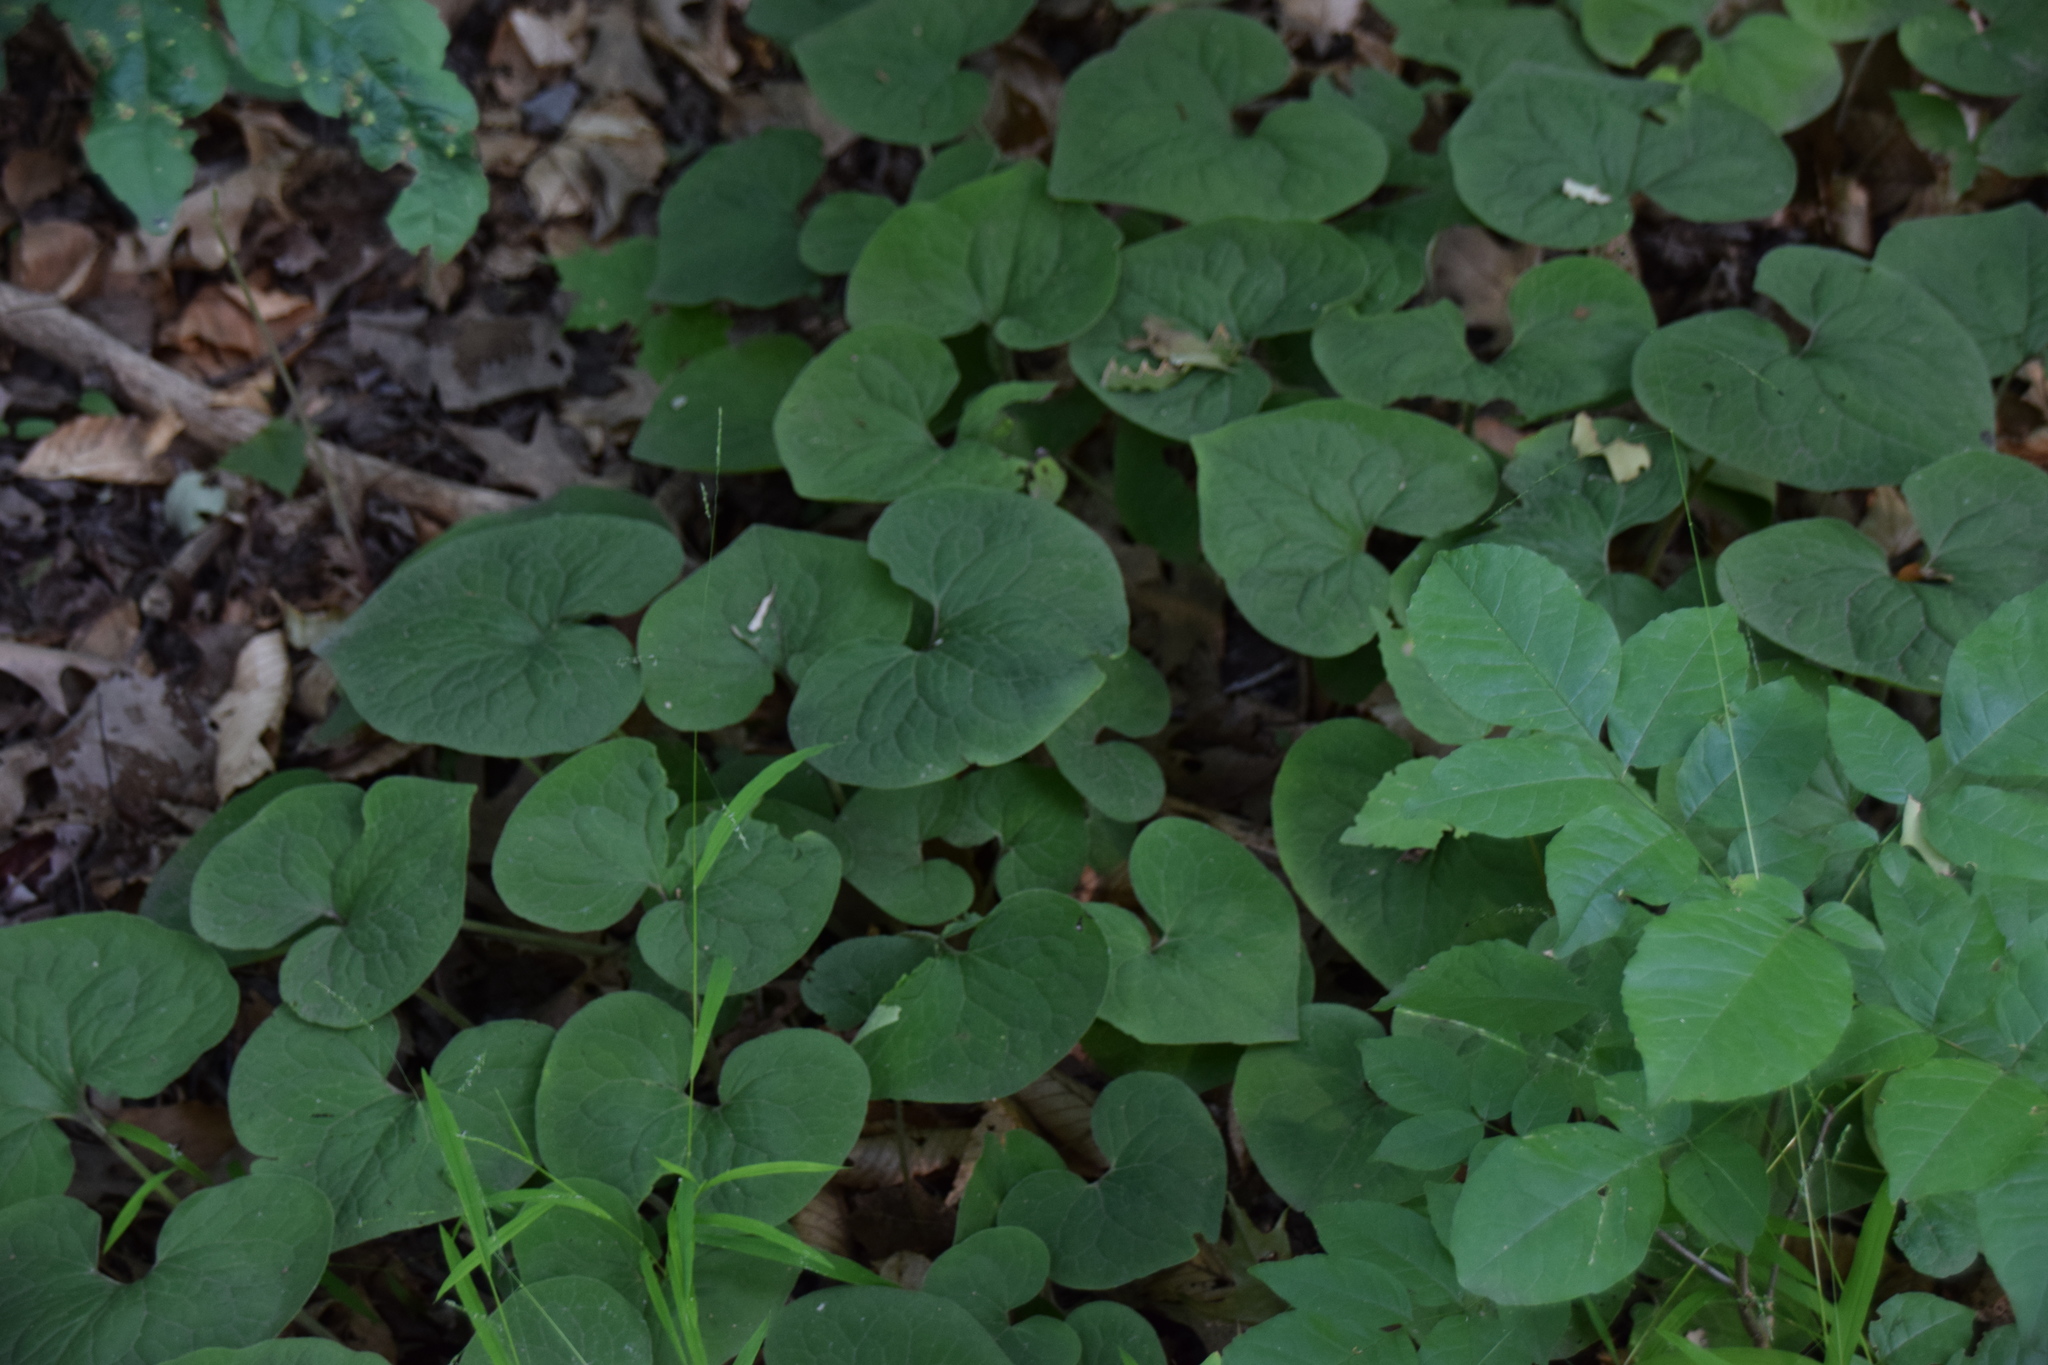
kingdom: Plantae
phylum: Tracheophyta
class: Magnoliopsida
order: Piperales
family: Aristolochiaceae
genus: Asarum
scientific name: Asarum canadense
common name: Wild ginger
